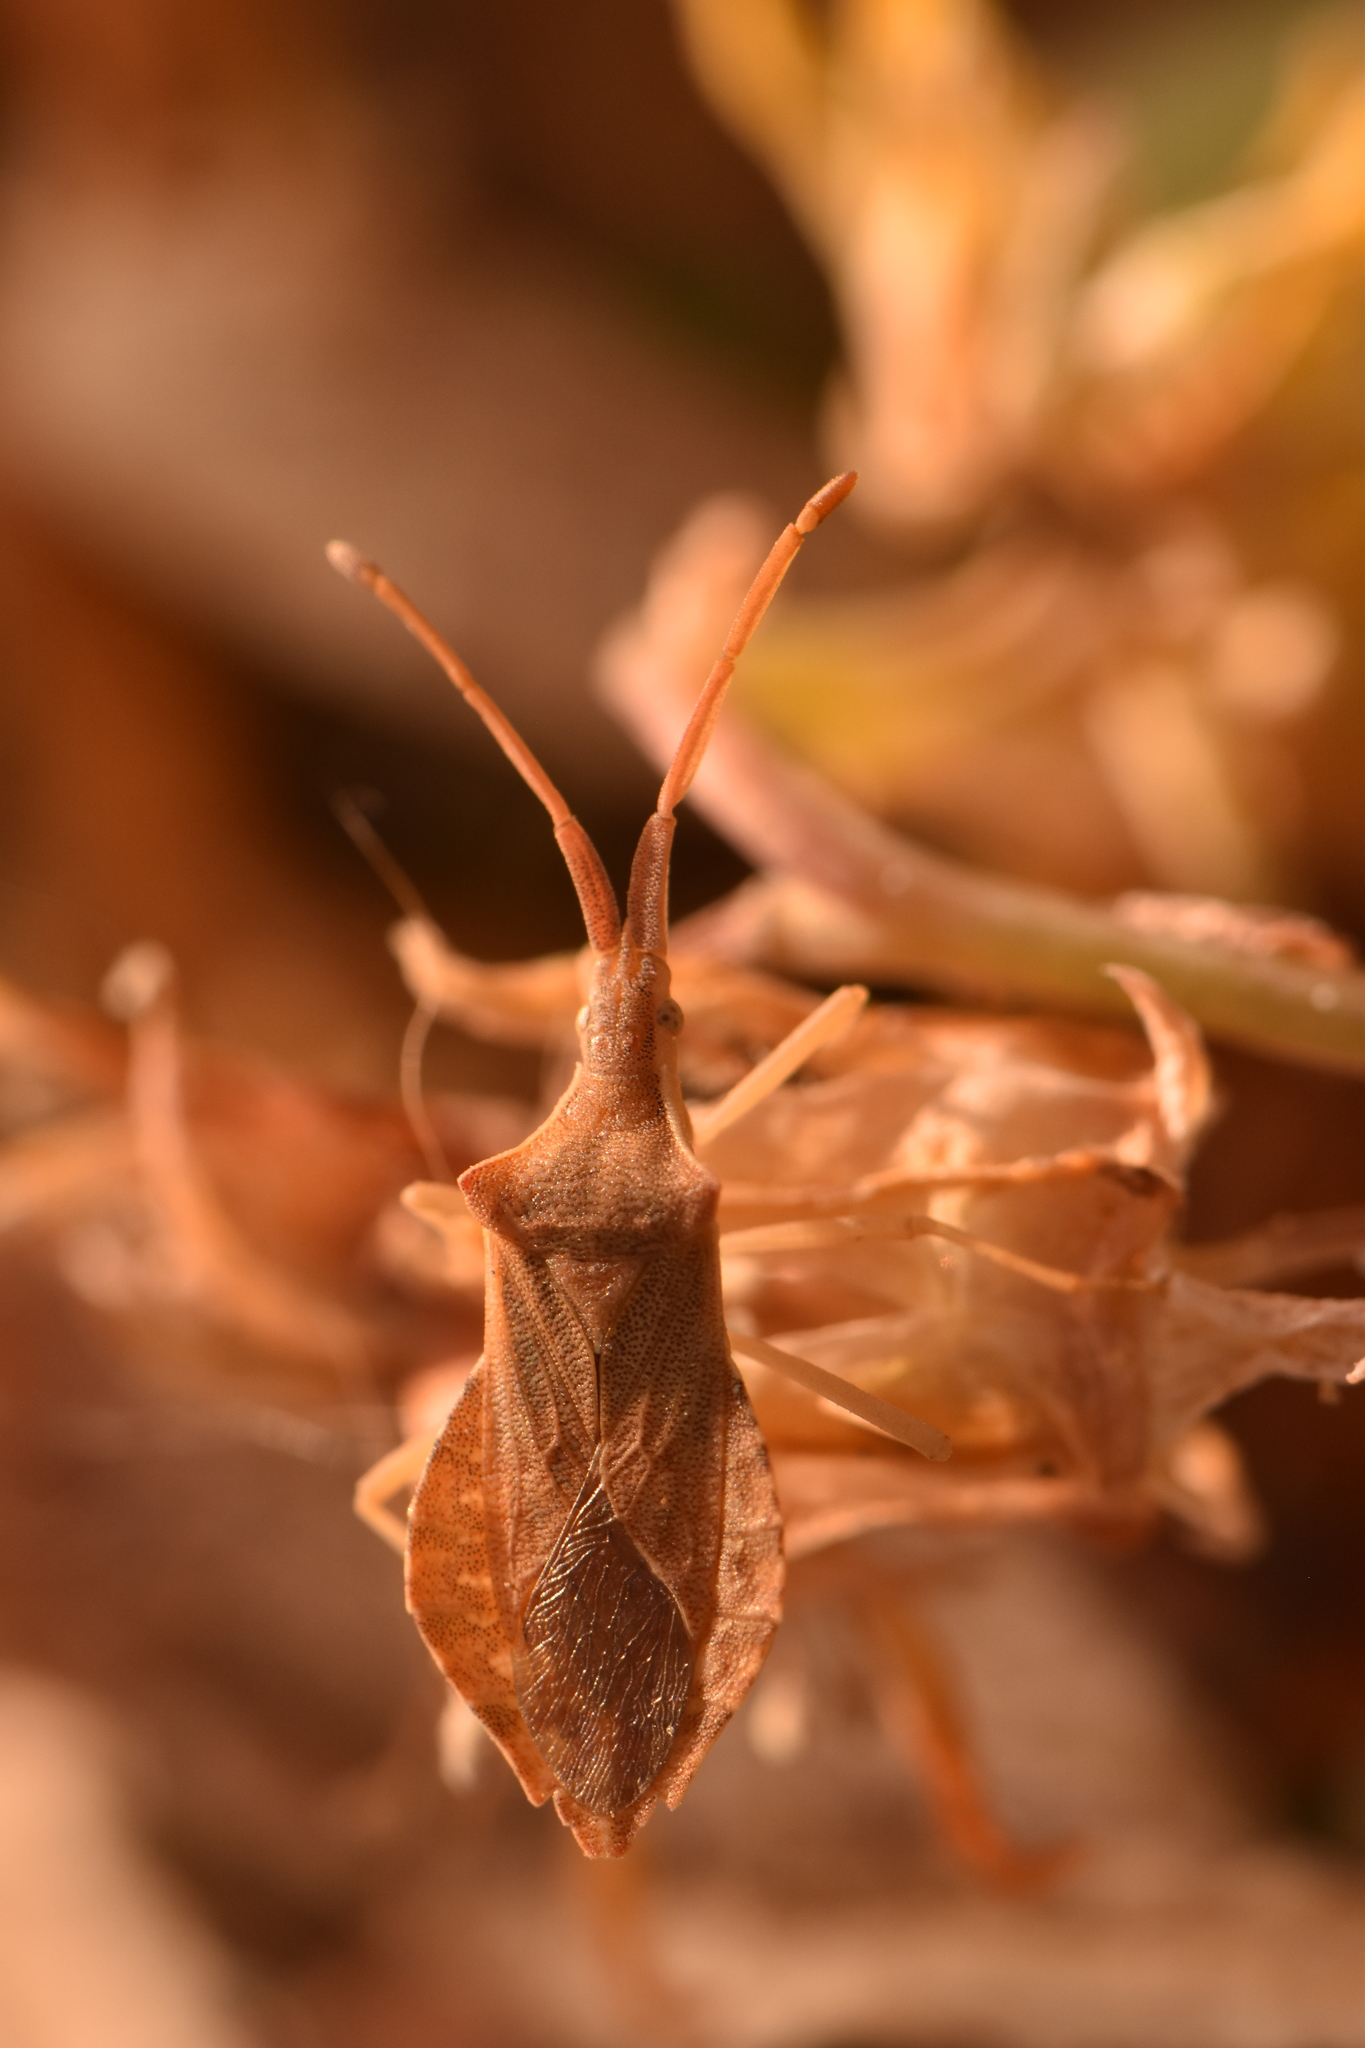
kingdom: Animalia
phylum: Arthropoda
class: Insecta
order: Hemiptera
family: Coreidae
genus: Haploprocta
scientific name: Haploprocta sulcicornis
